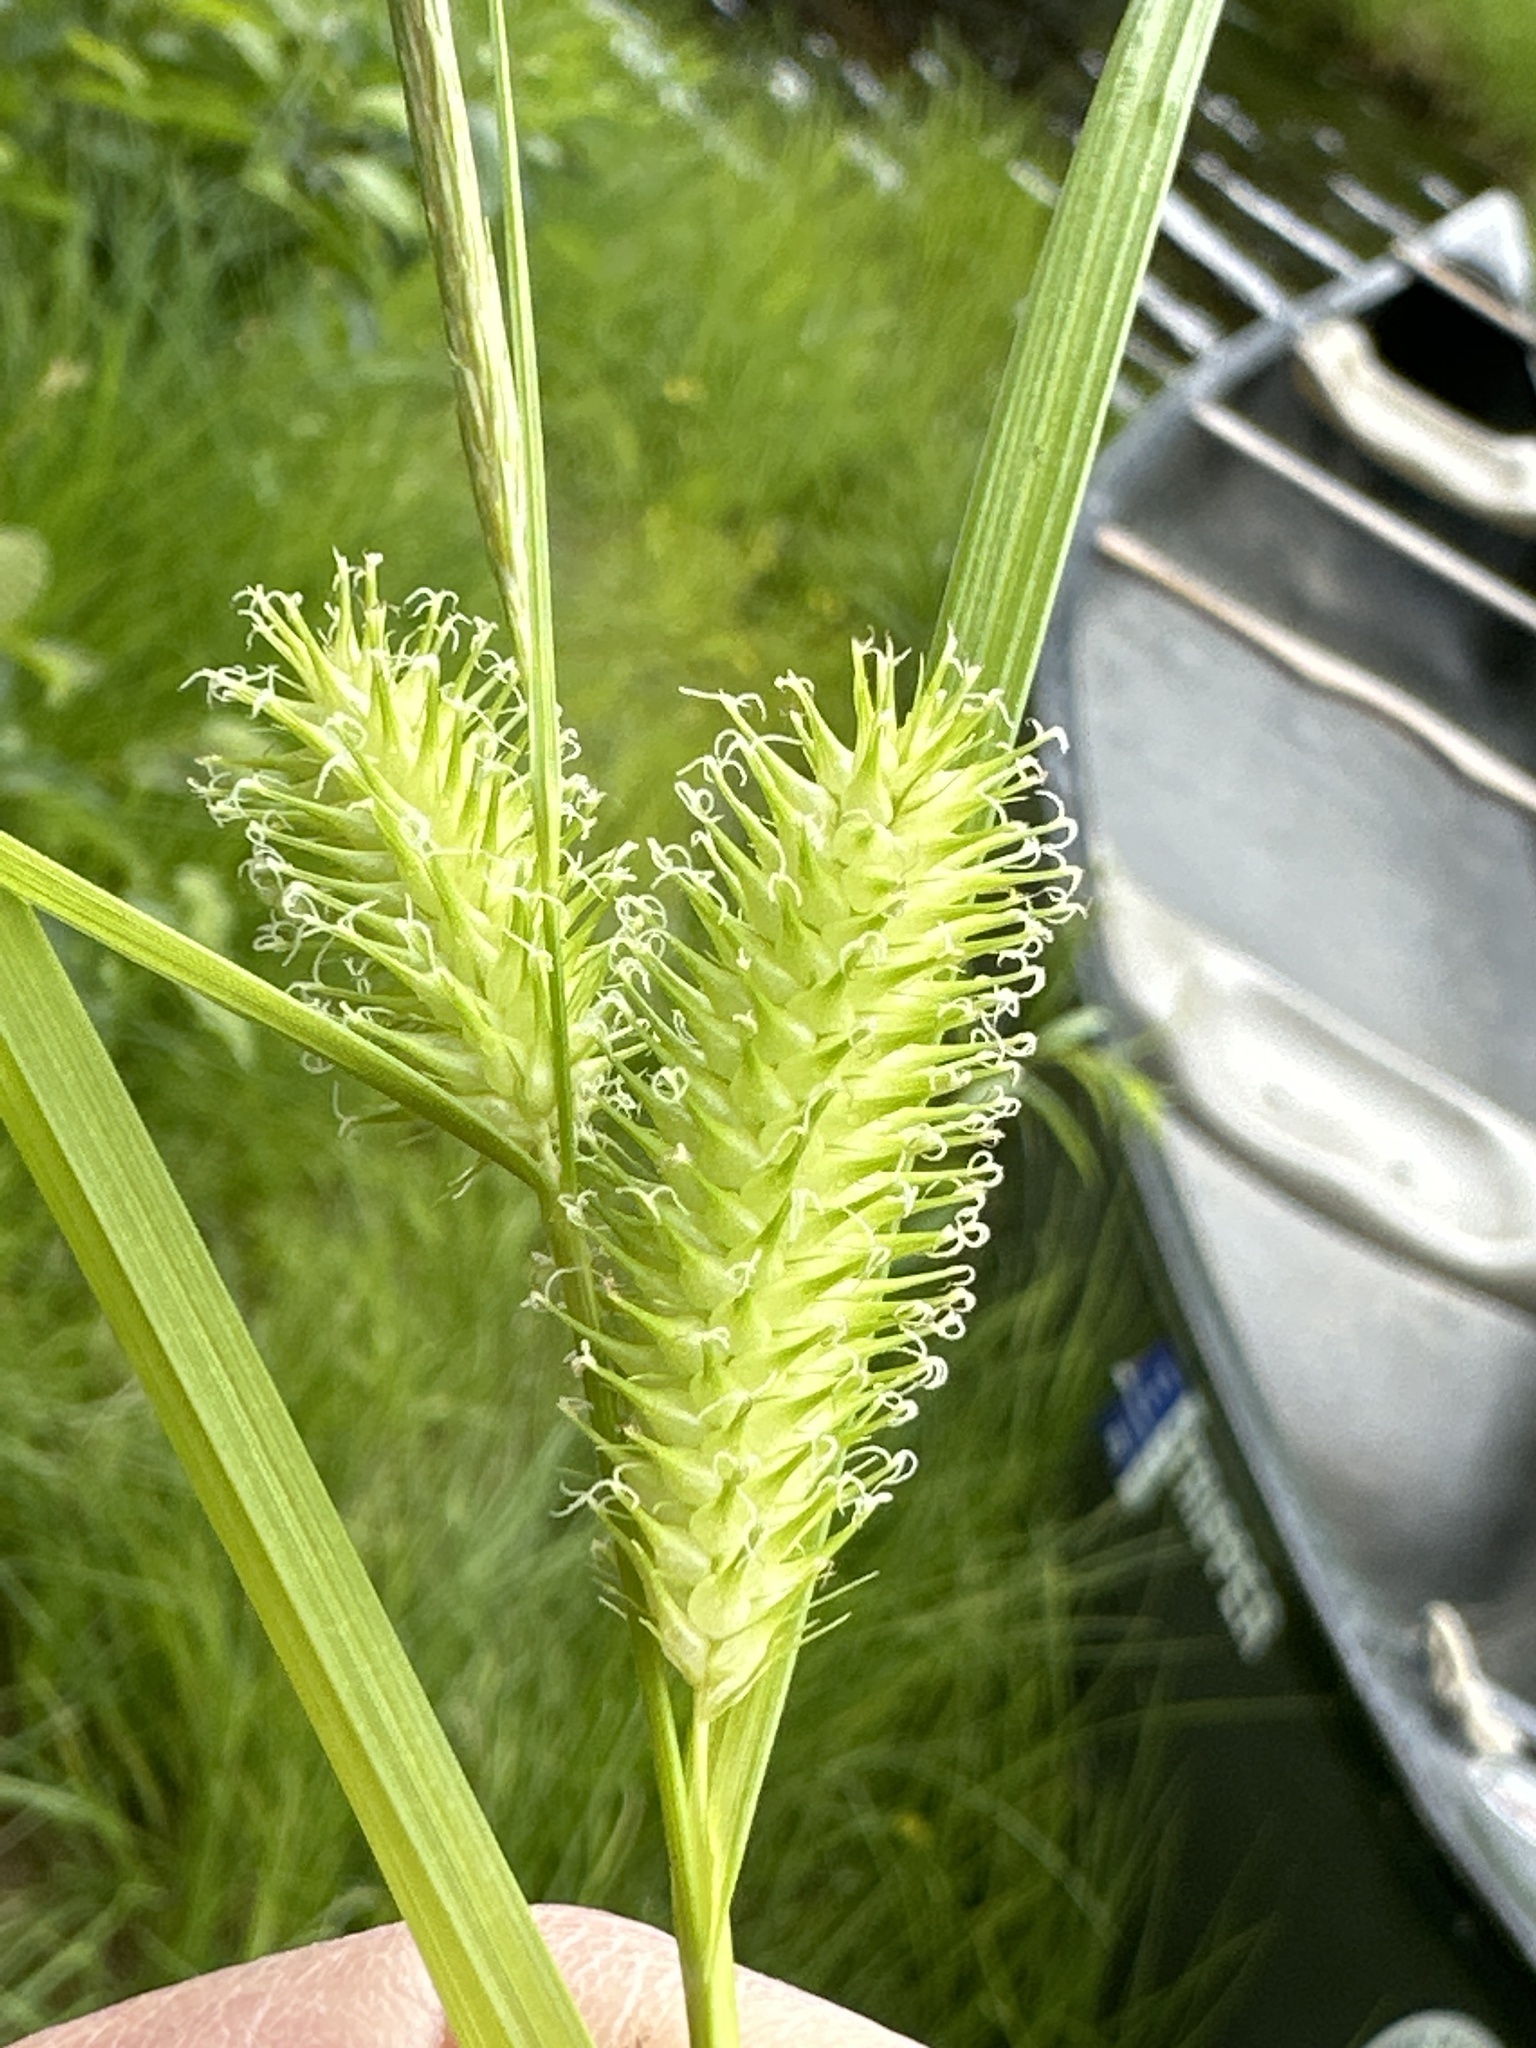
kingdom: Plantae
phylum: Tracheophyta
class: Liliopsida
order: Poales
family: Cyperaceae
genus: Carex
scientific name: Carex lurida
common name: Sallow sedge
